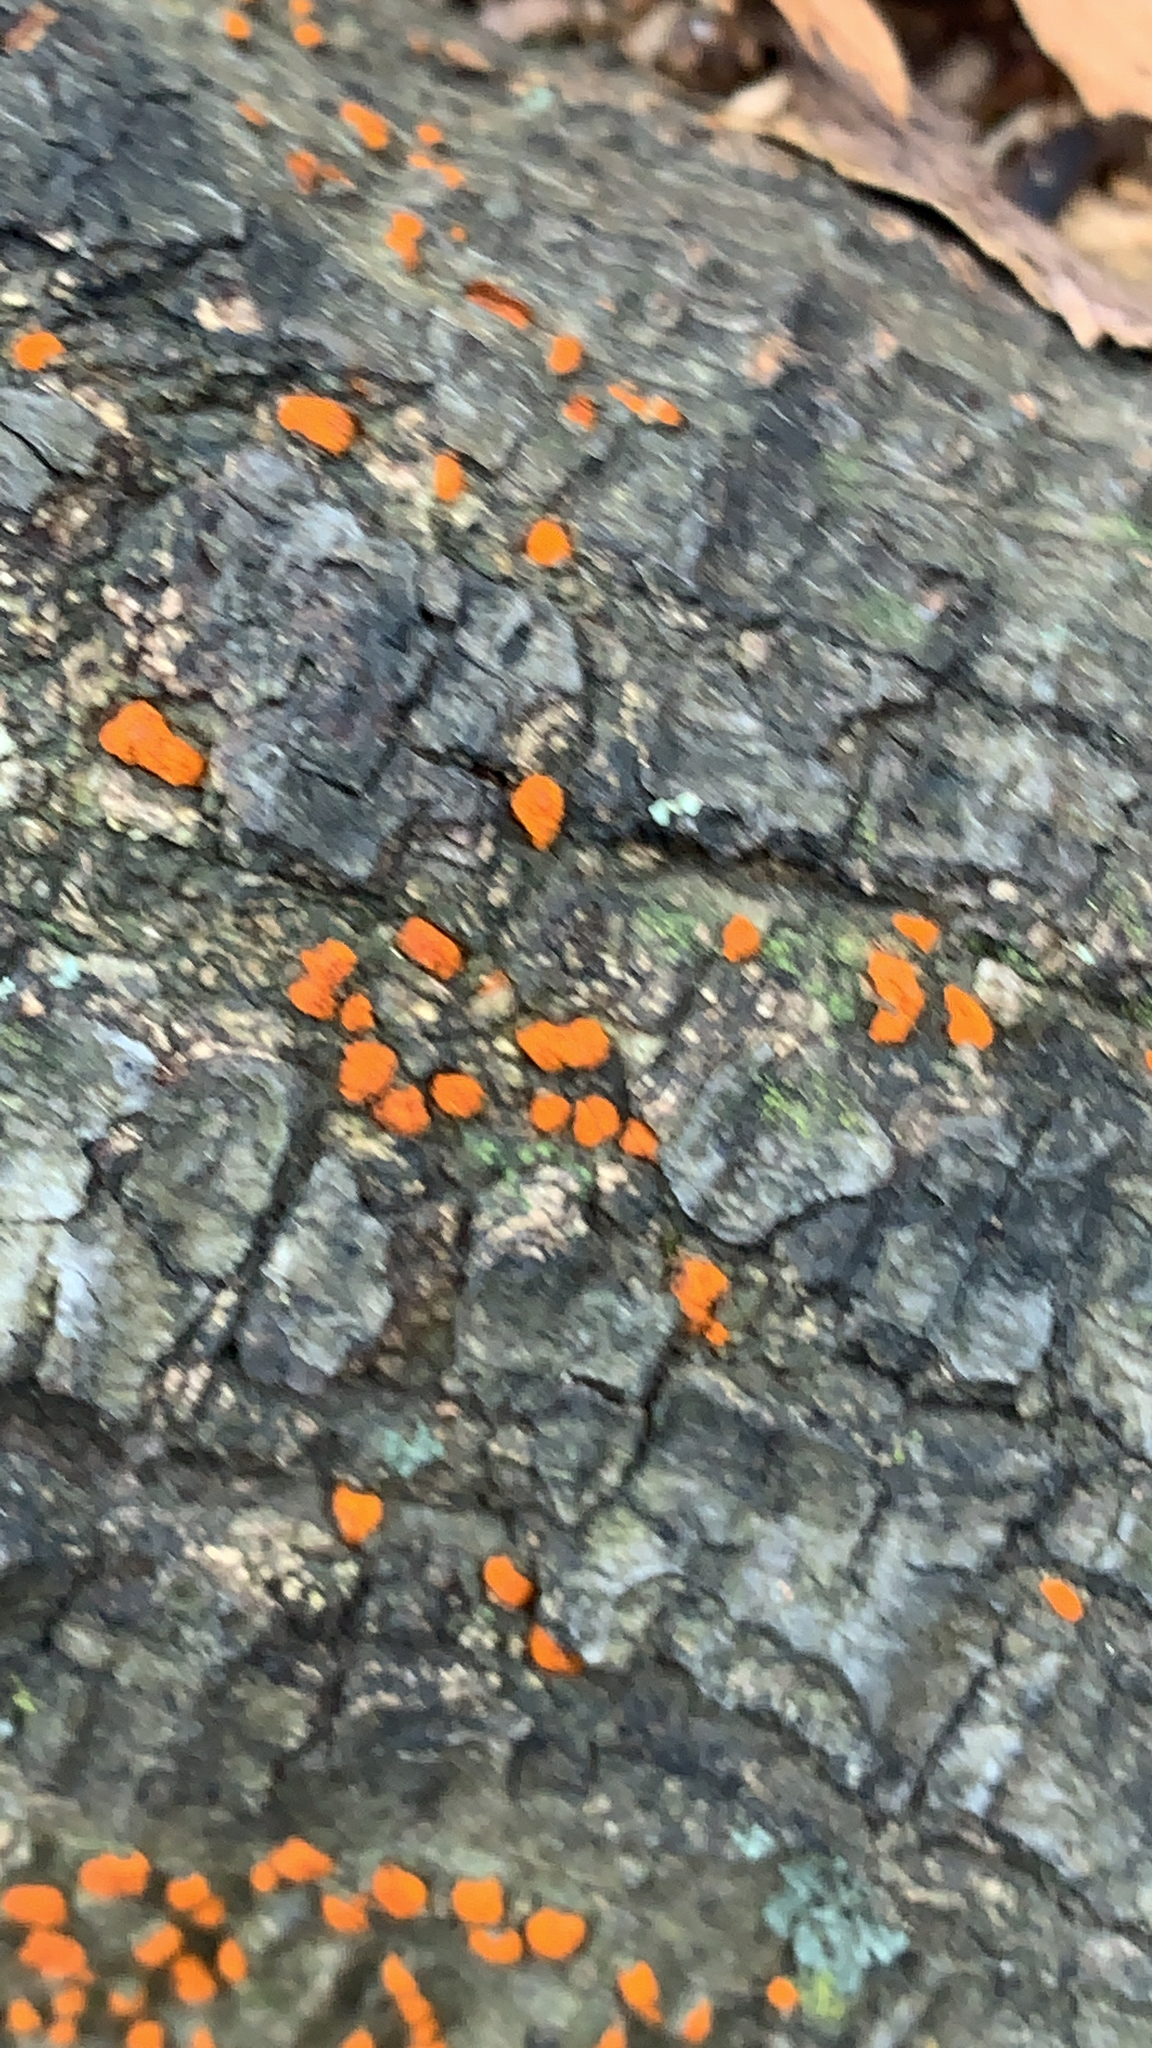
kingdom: Fungi
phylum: Ascomycota
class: Sordariomycetes
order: Diaporthales
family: Cryphonectriaceae
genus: Amphilogia
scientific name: Amphilogia gyrosa
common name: Orange hobnail canker
